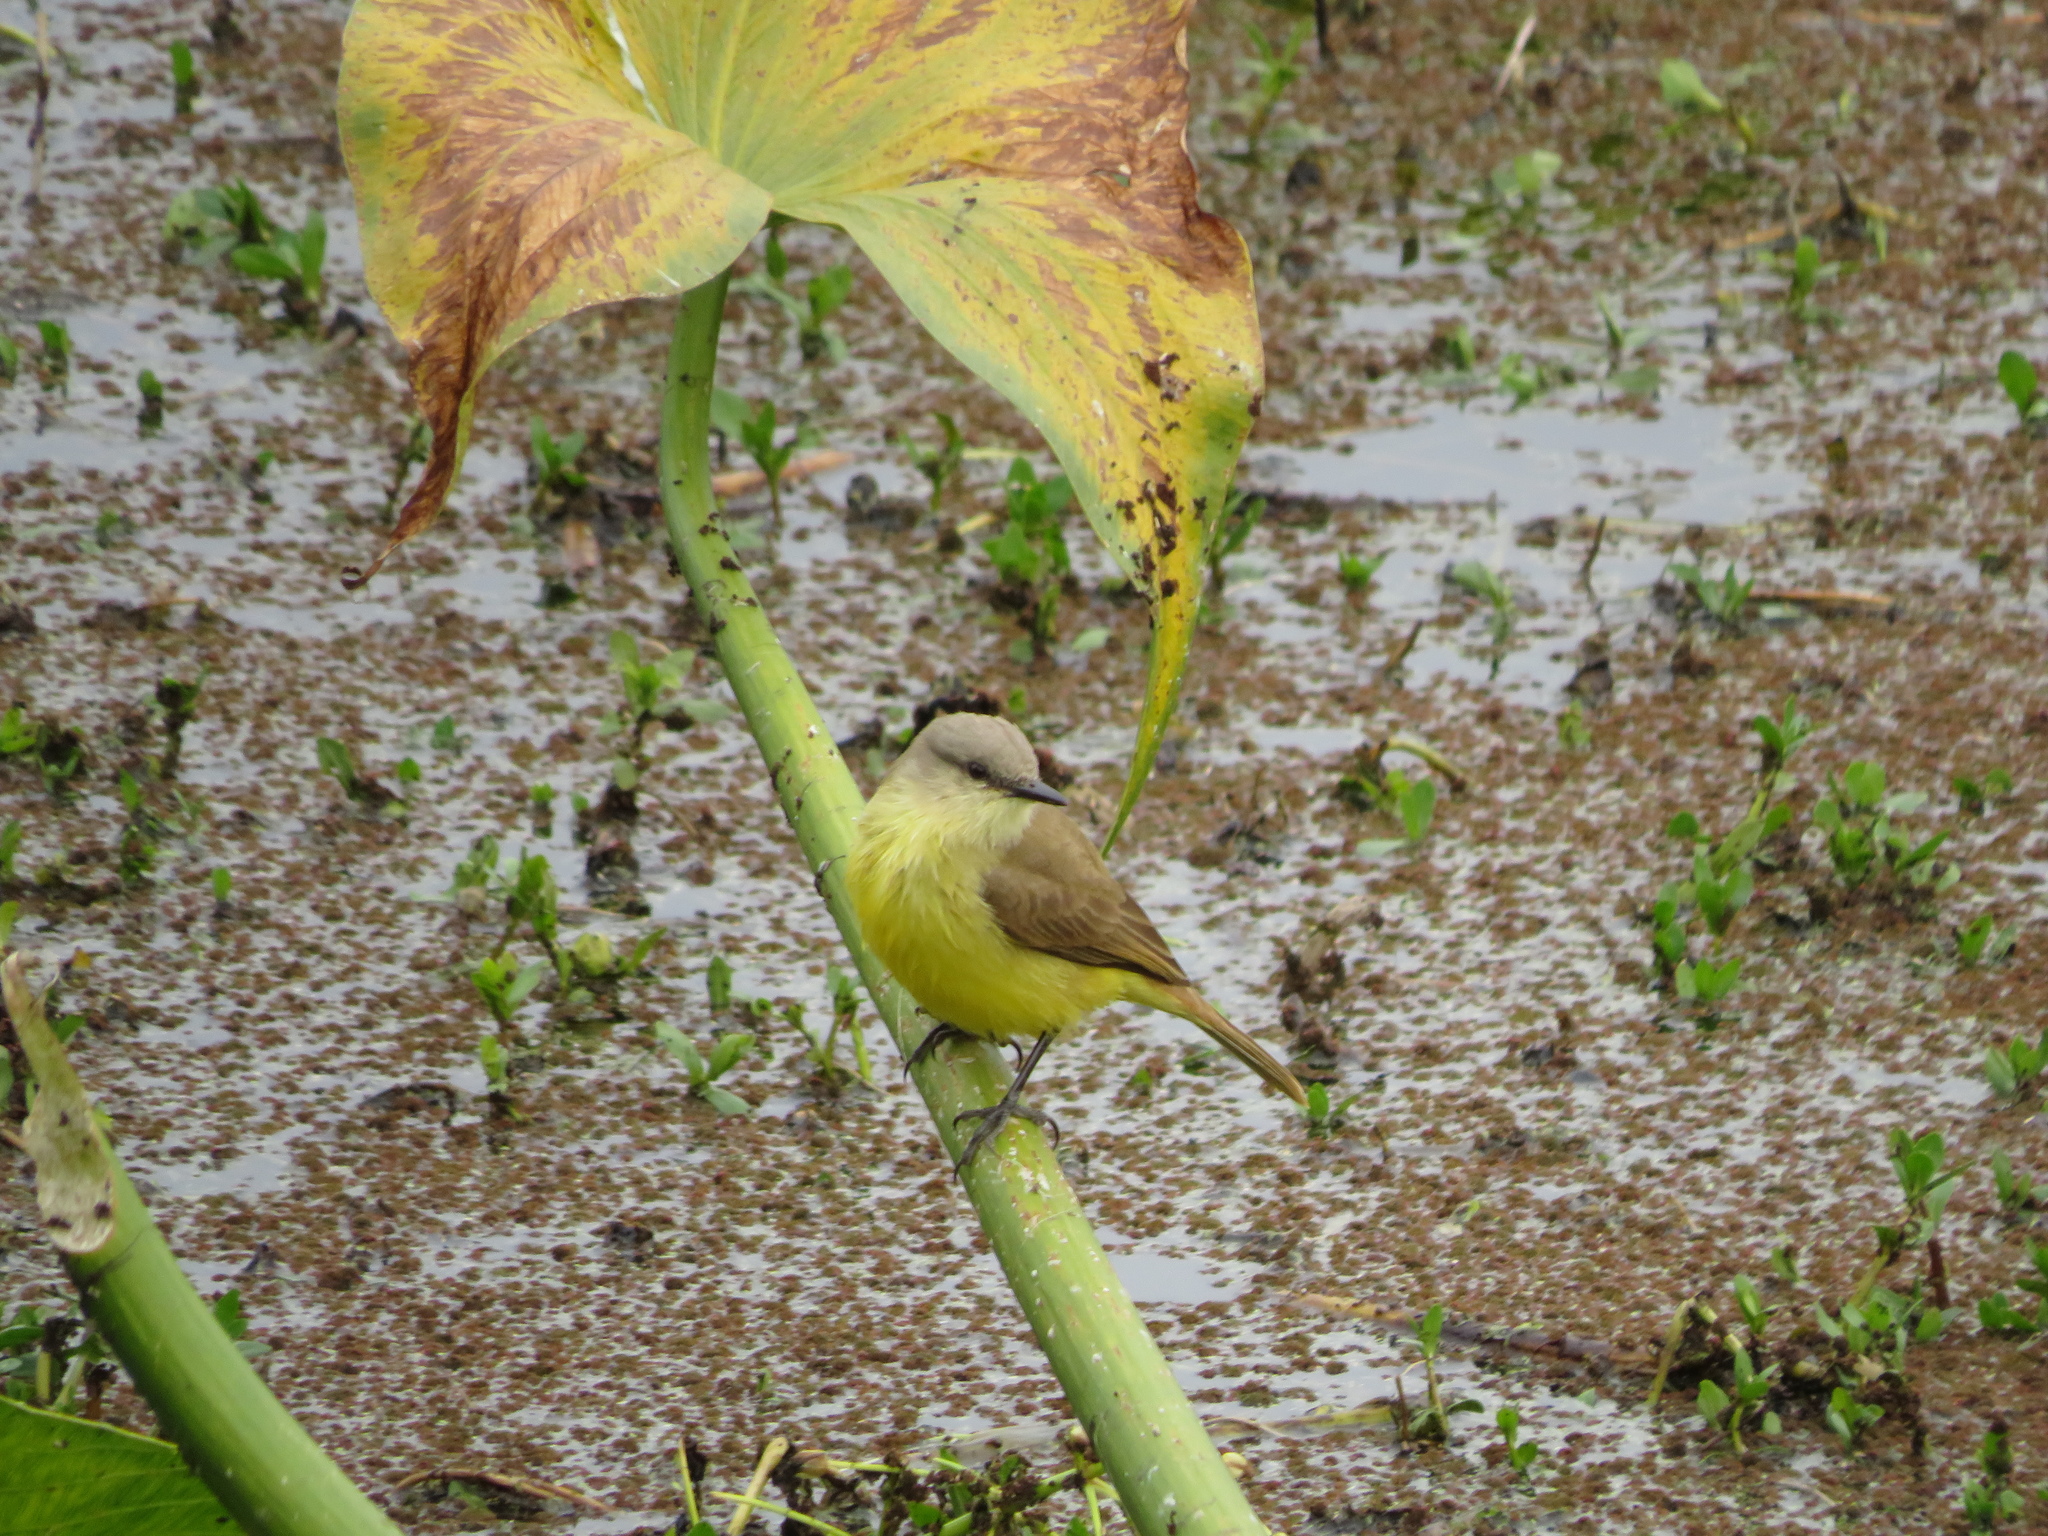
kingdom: Animalia
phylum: Chordata
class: Aves
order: Passeriformes
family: Tyrannidae
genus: Machetornis
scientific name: Machetornis rixosa
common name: Cattle tyrant
